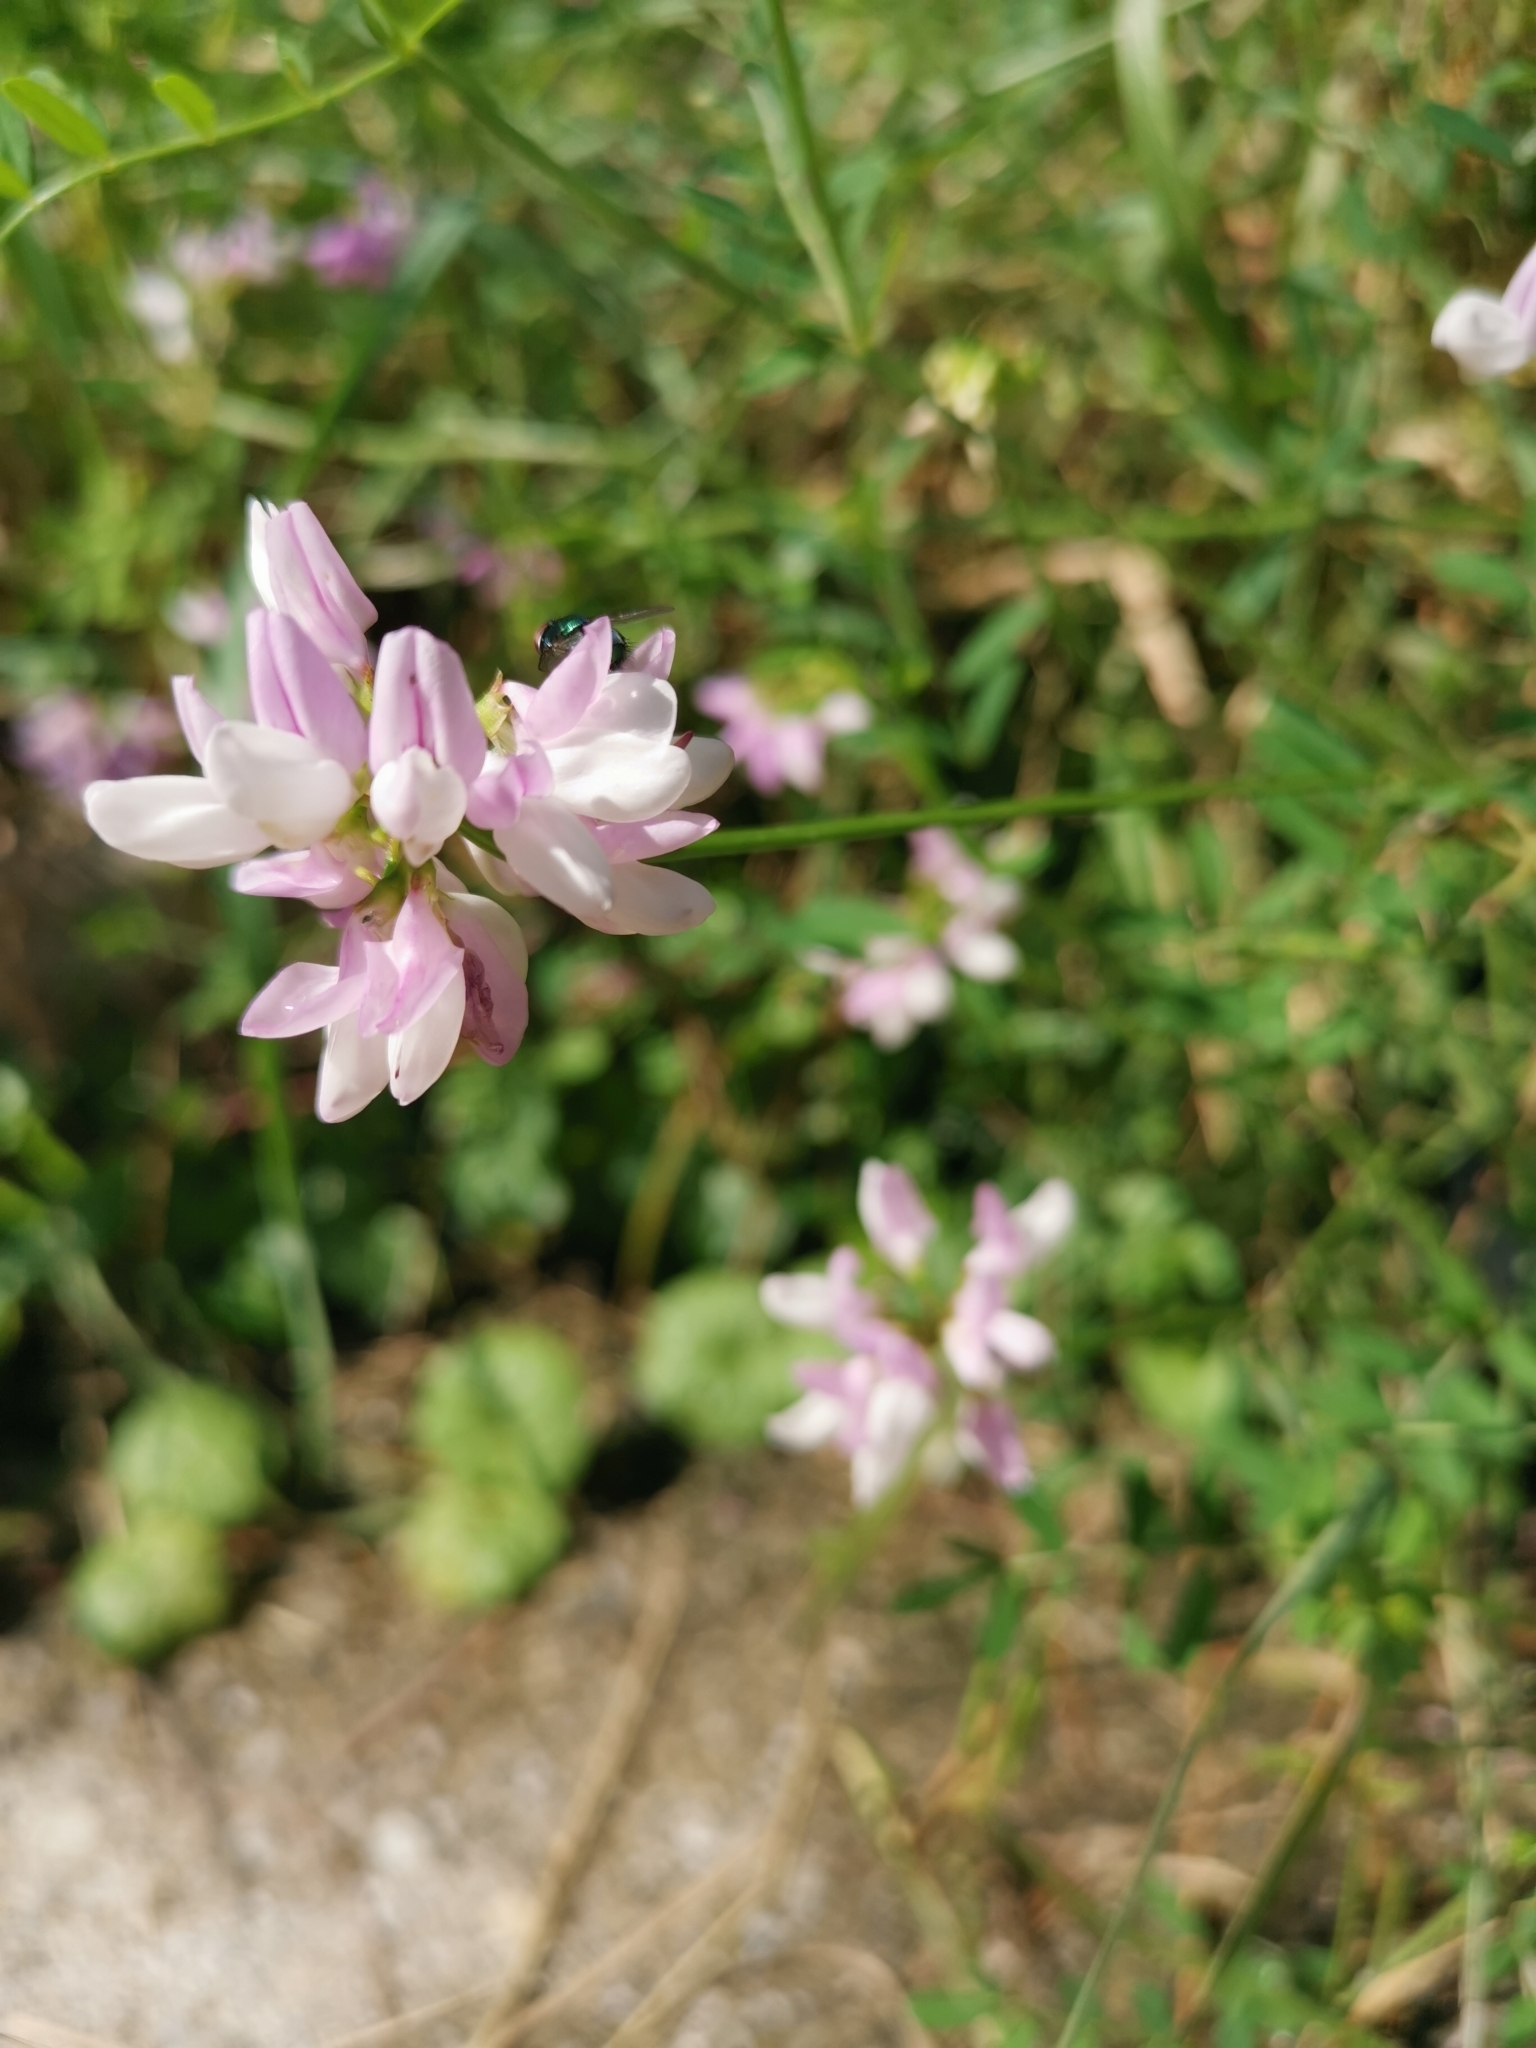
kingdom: Plantae
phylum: Tracheophyta
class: Magnoliopsida
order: Fabales
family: Fabaceae
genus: Coronilla
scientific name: Coronilla varia
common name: Crownvetch
